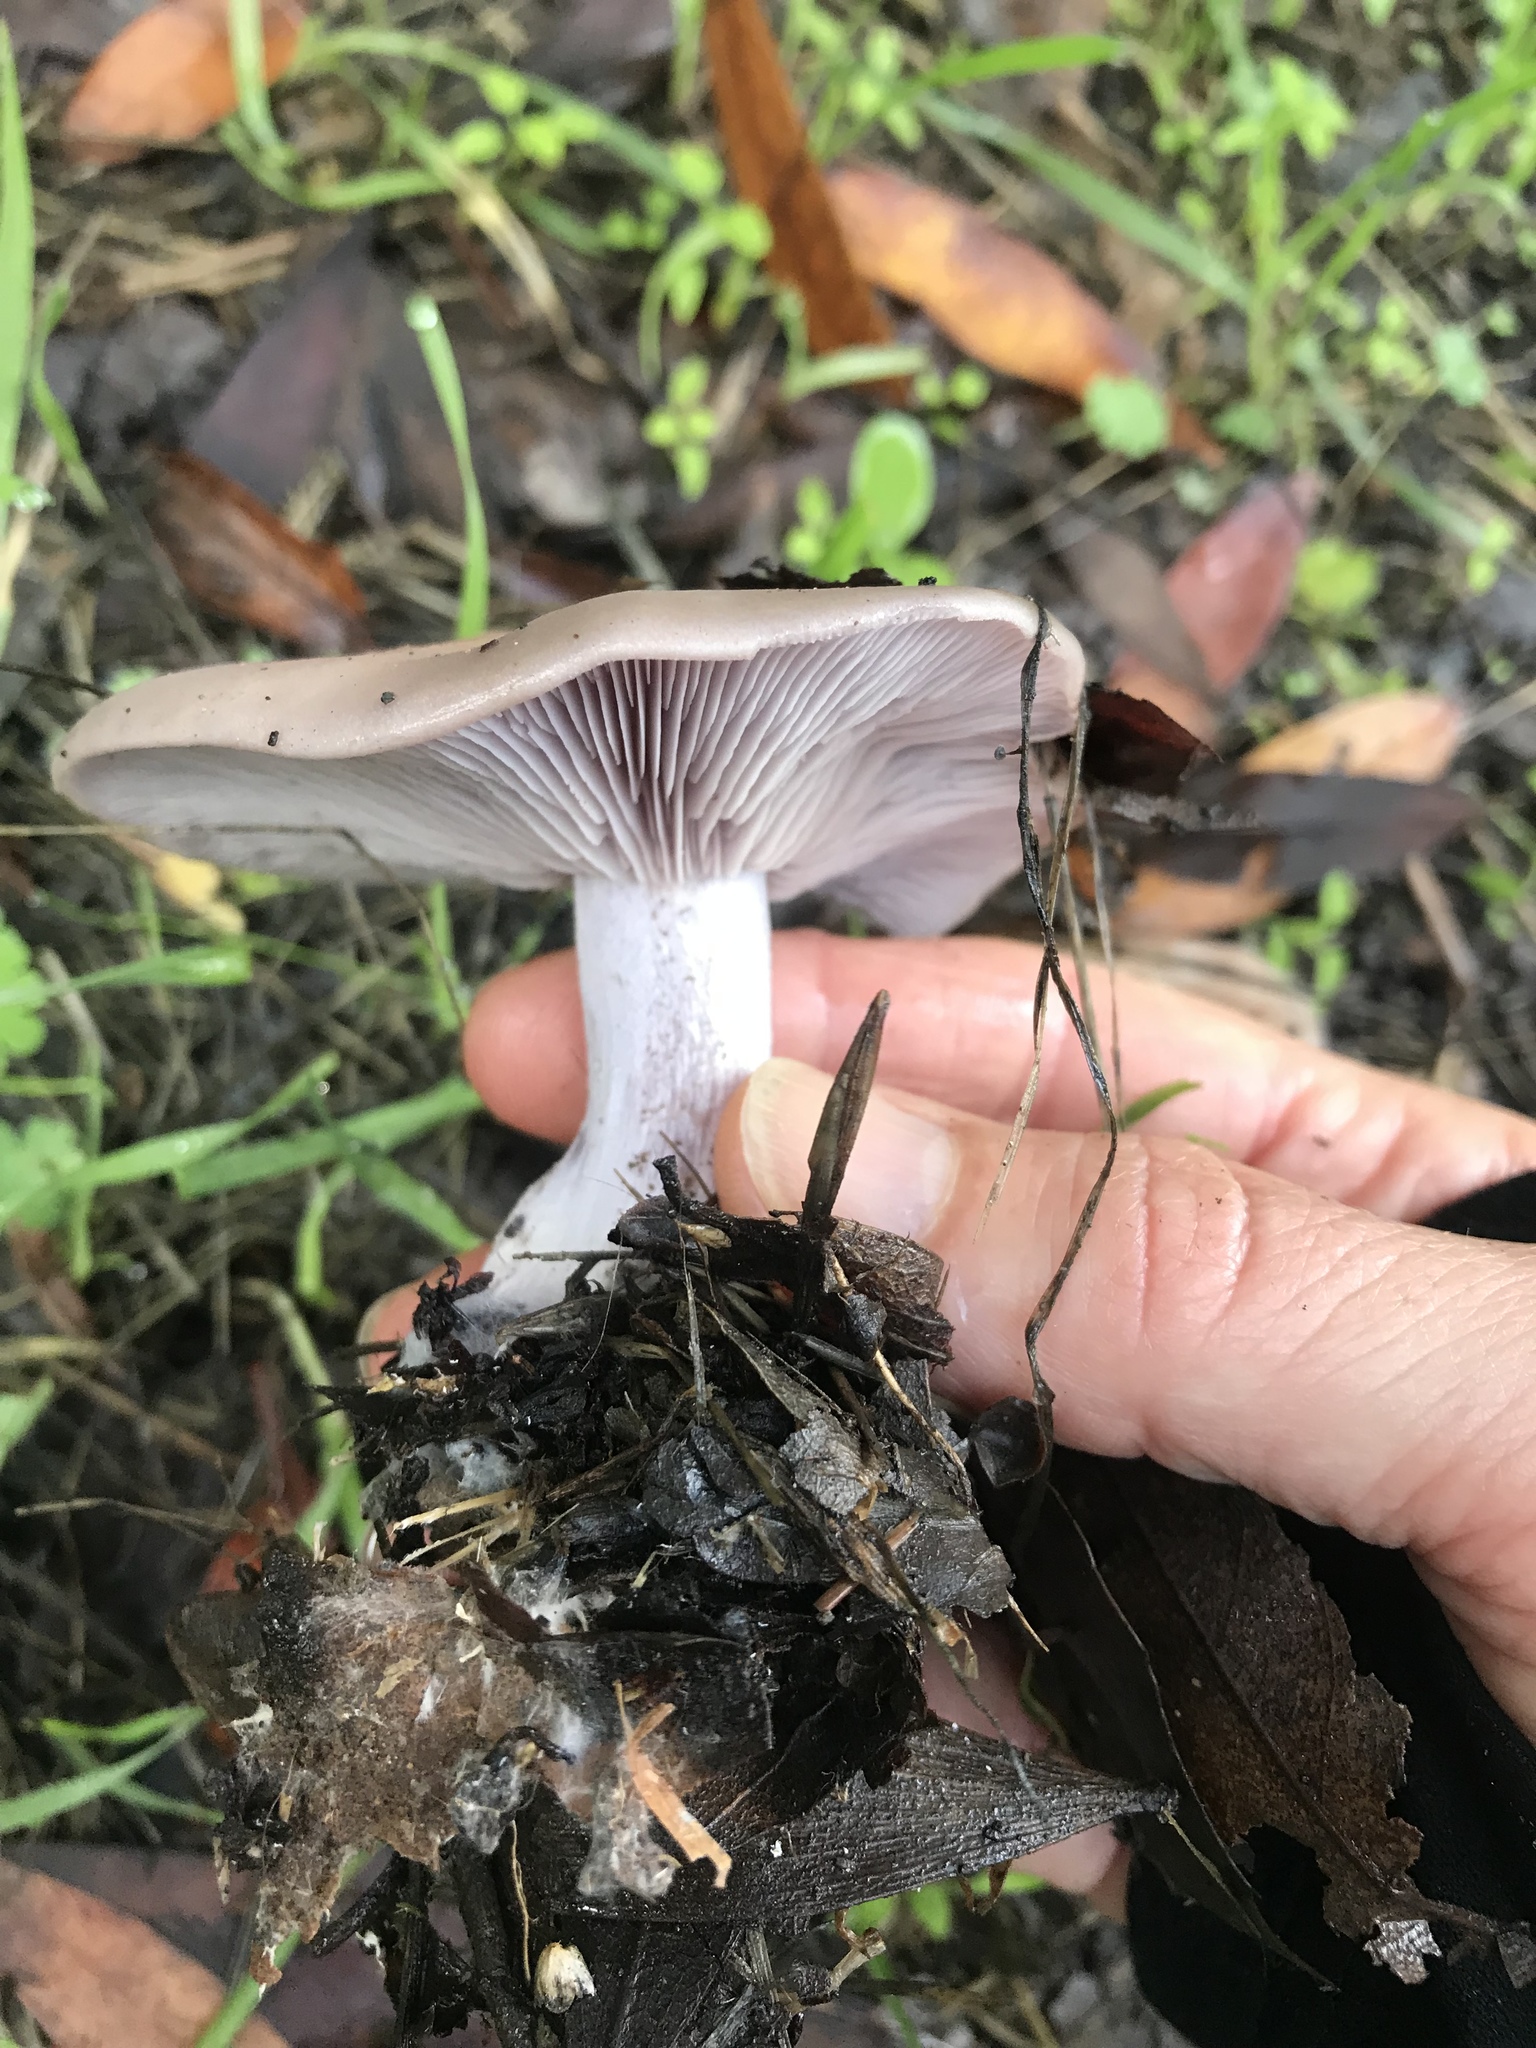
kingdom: Fungi
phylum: Basidiomycota
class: Agaricomycetes
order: Agaricales
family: Tricholomataceae
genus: Collybia
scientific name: Collybia
